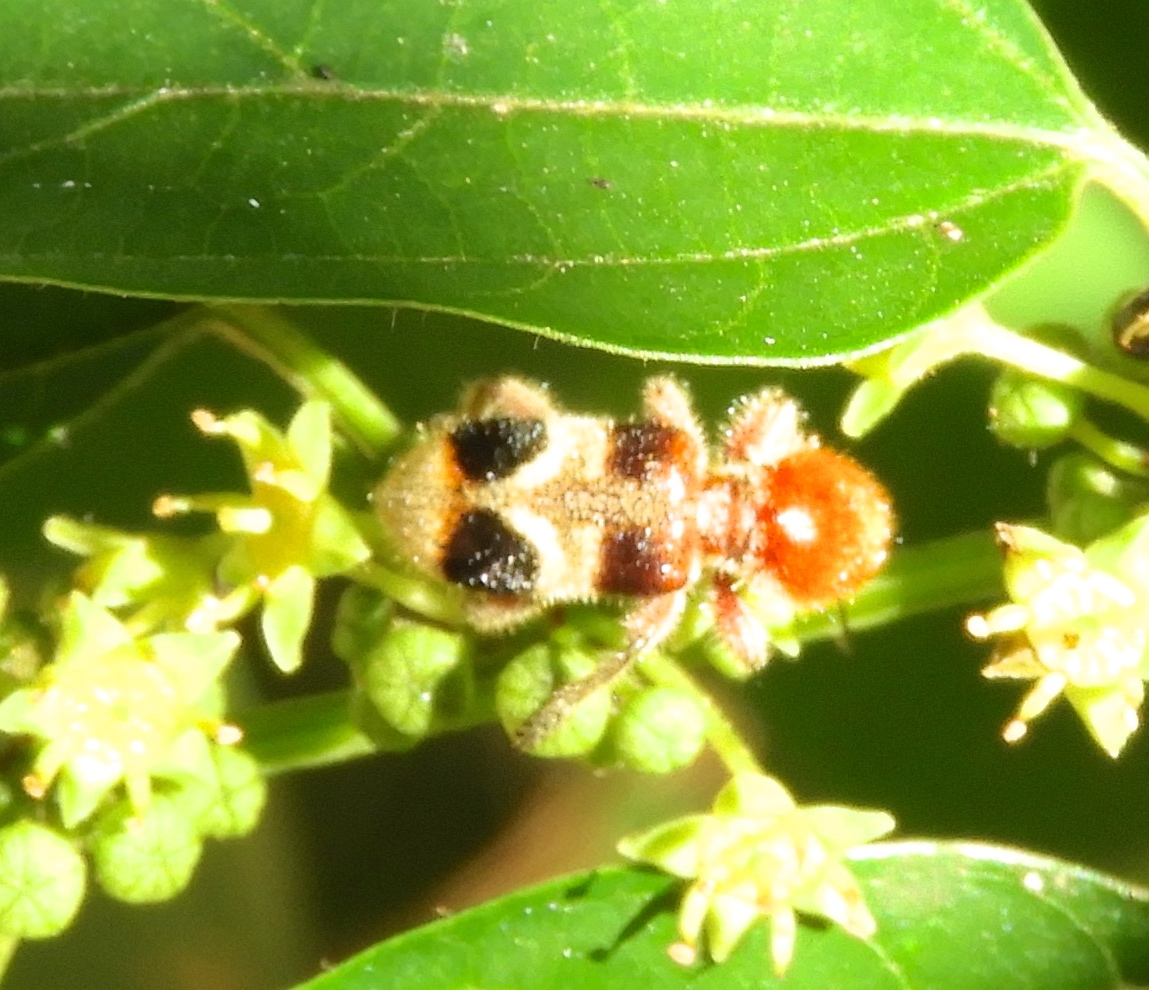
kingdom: Animalia
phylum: Arthropoda
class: Insecta
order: Coleoptera
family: Cleridae
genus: Enoclerus
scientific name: Enoclerus quadriguttatus
